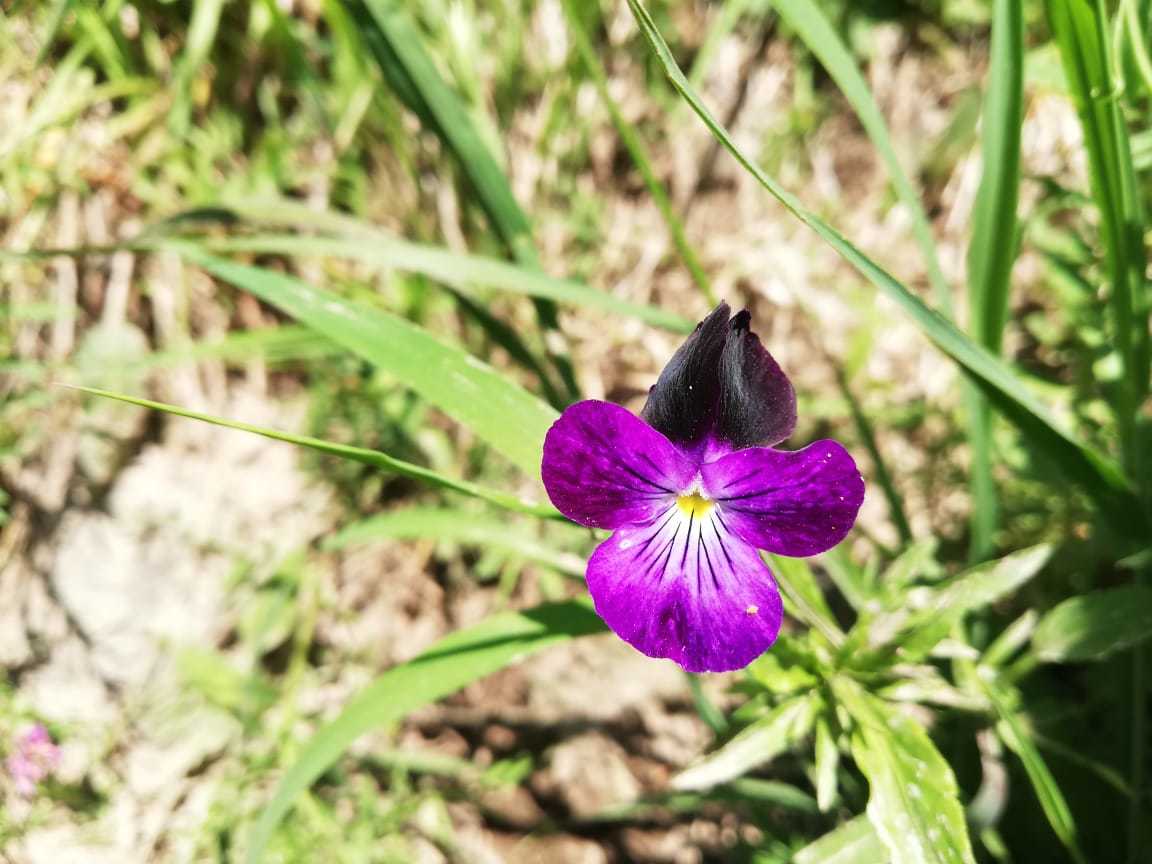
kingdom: Plantae
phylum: Tracheophyta
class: Magnoliopsida
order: Malpighiales
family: Violaceae
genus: Viola
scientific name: Viola tricolor
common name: Pansy
